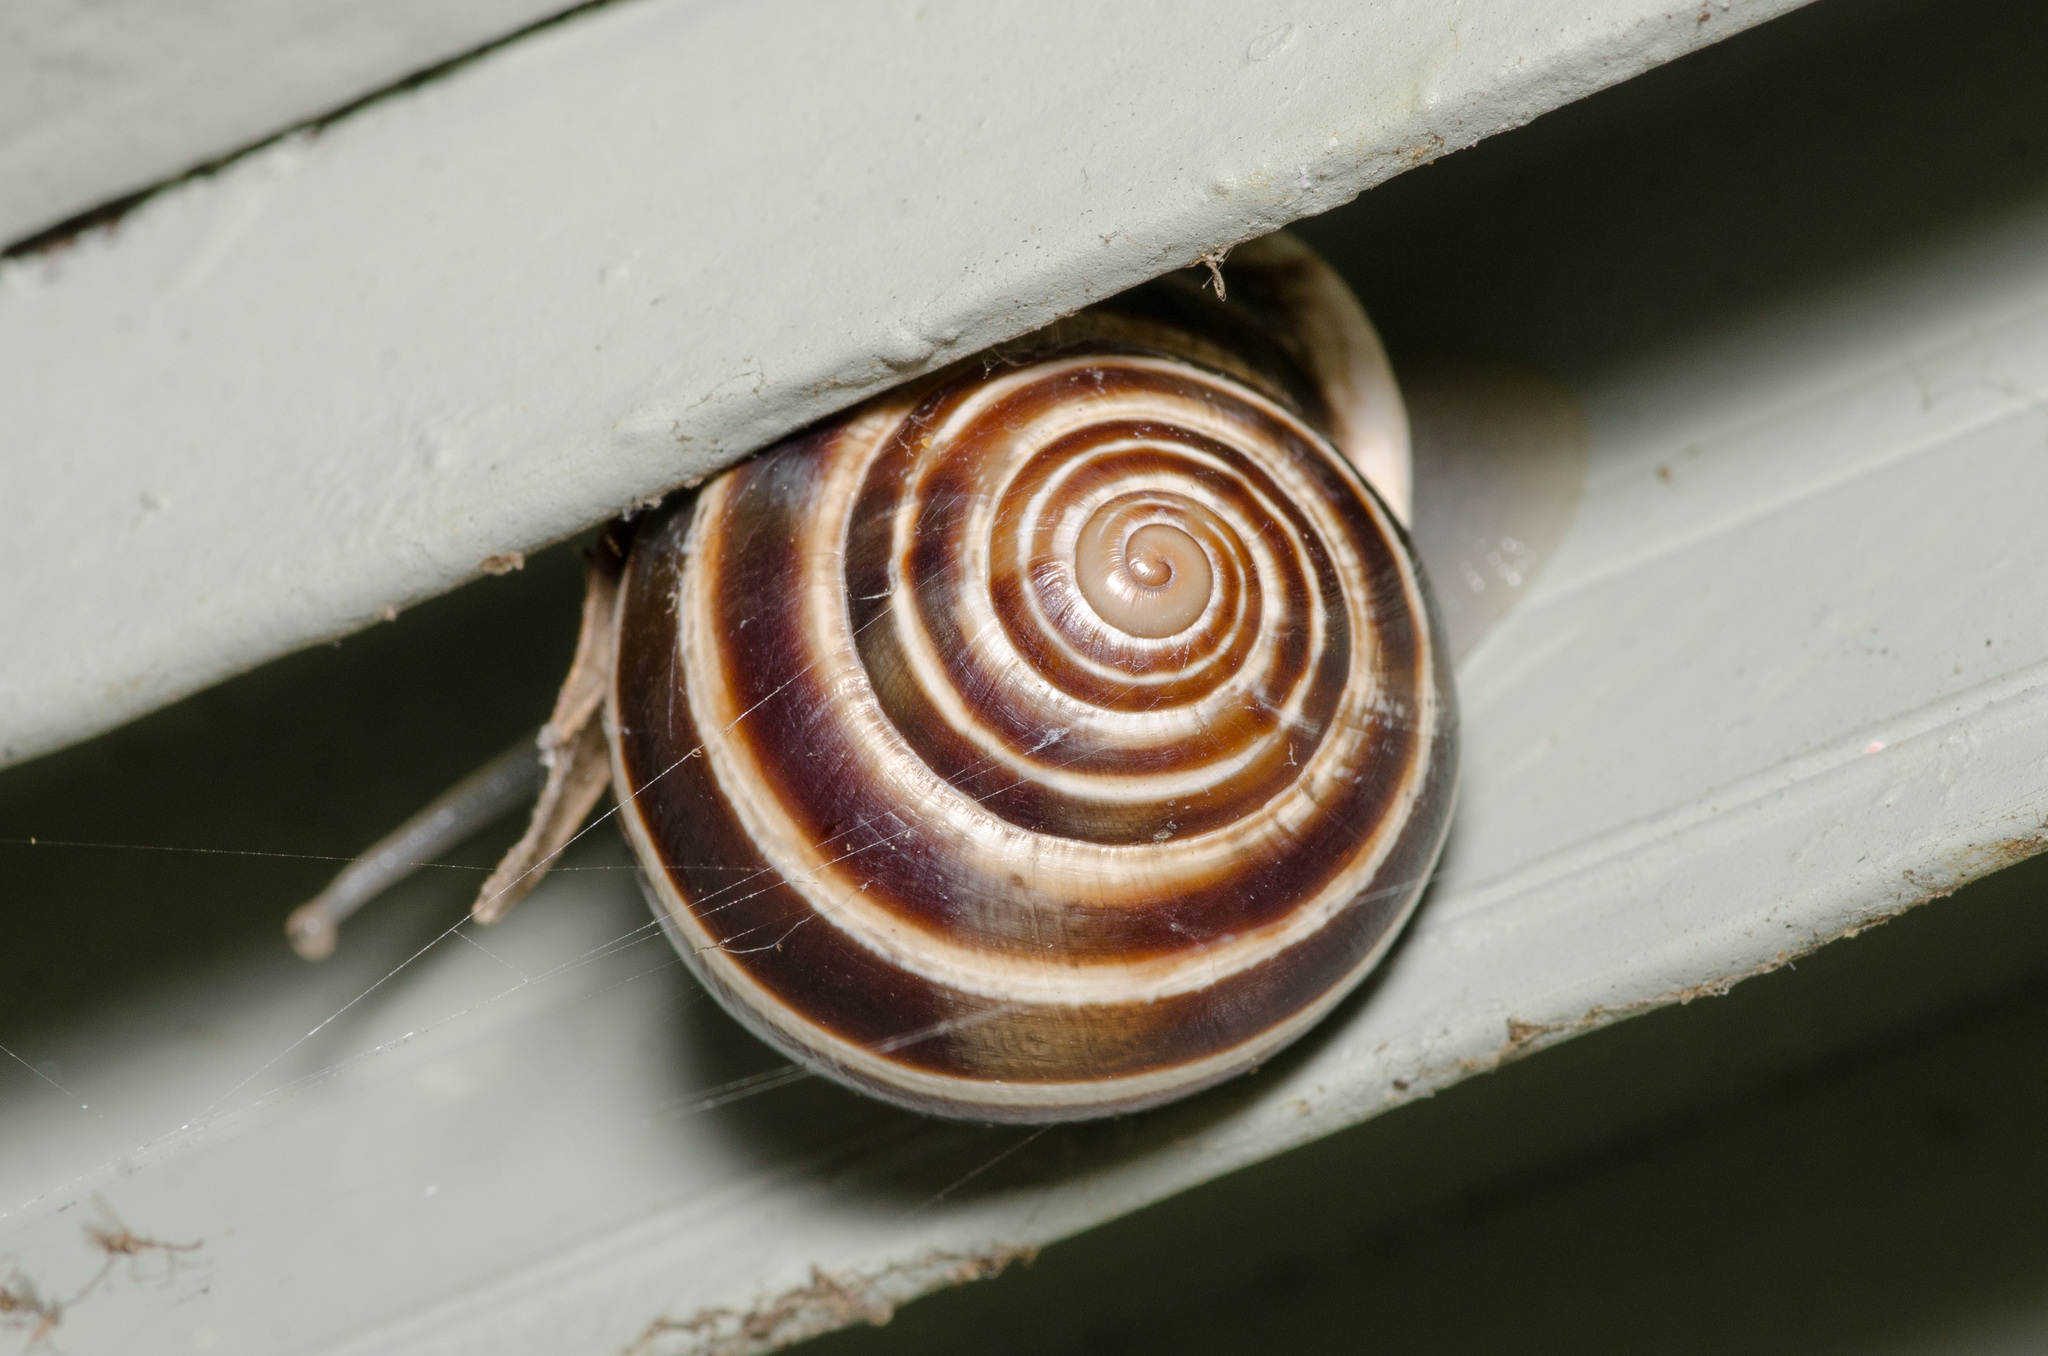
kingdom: Animalia
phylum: Mollusca
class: Gastropoda
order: Stylommatophora
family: Helicidae
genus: Otala
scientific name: Otala lactea
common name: Milk snail
